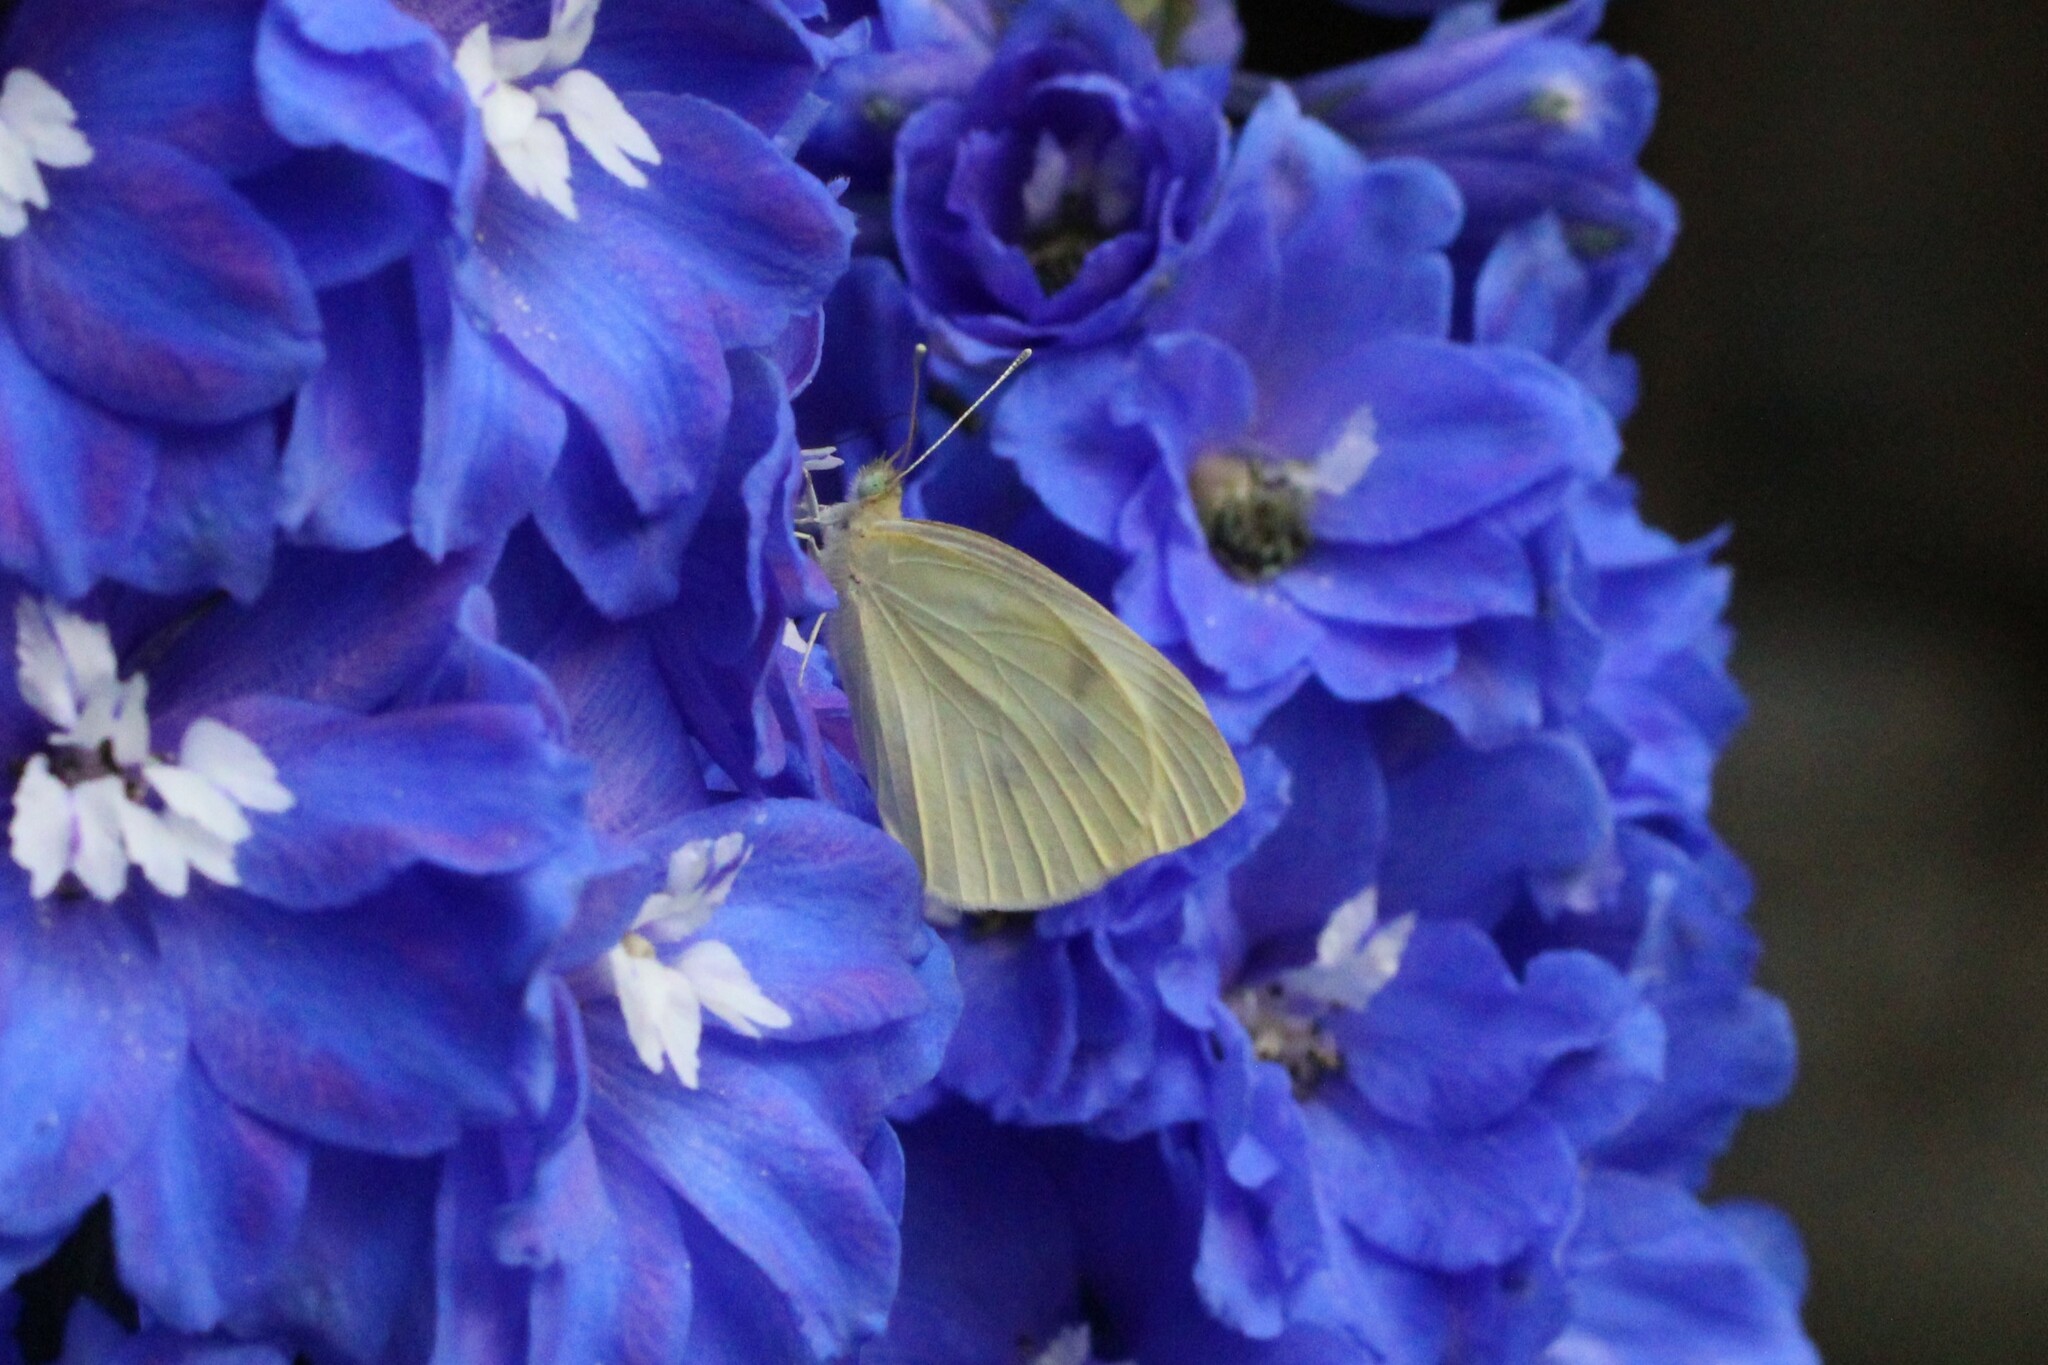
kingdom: Animalia
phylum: Arthropoda
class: Insecta
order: Lepidoptera
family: Pieridae
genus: Pieris
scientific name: Pieris rapae
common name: Small white
